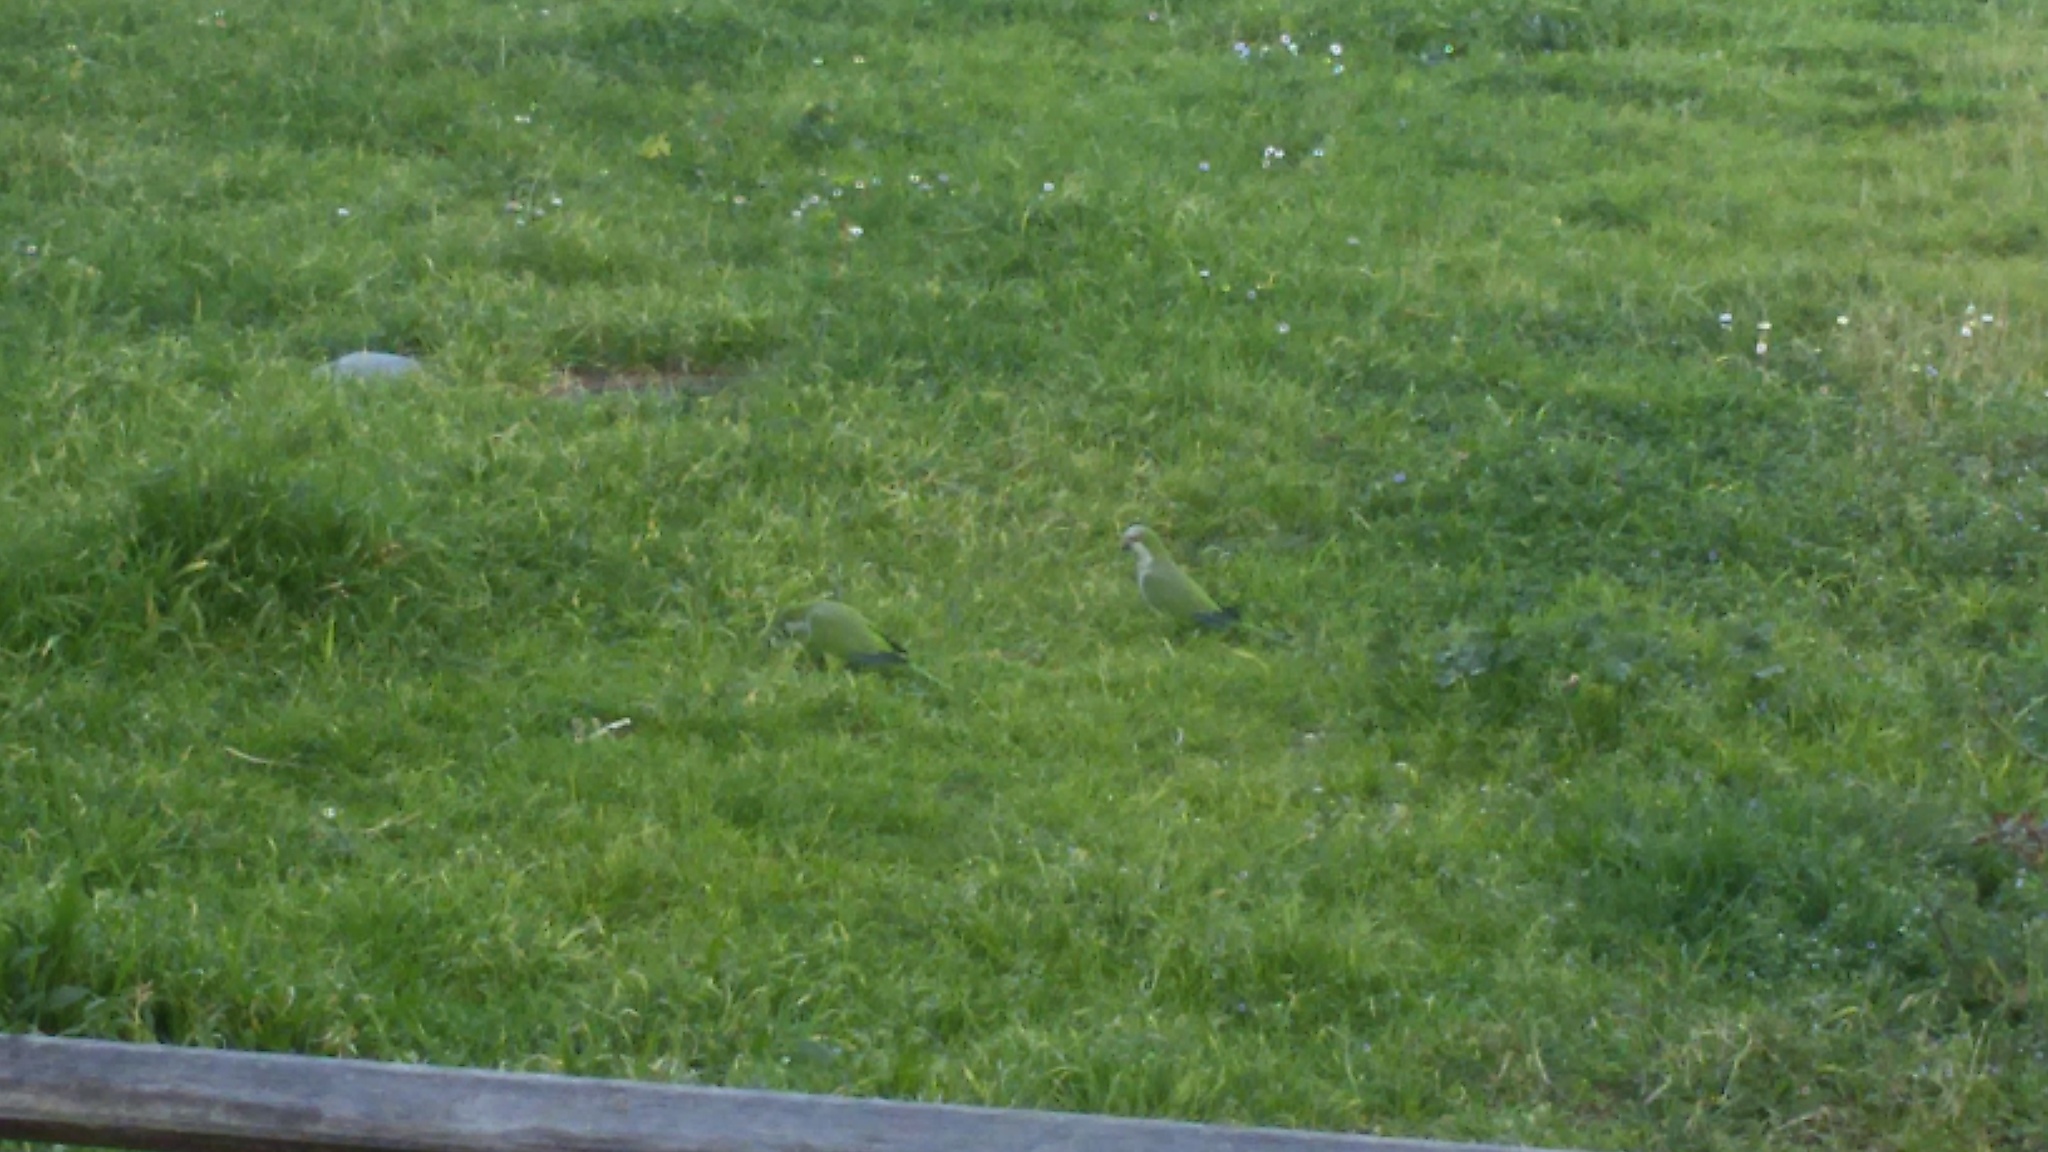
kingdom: Animalia
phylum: Chordata
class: Aves
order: Psittaciformes
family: Psittacidae
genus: Myiopsitta
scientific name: Myiopsitta monachus
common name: Monk parakeet
